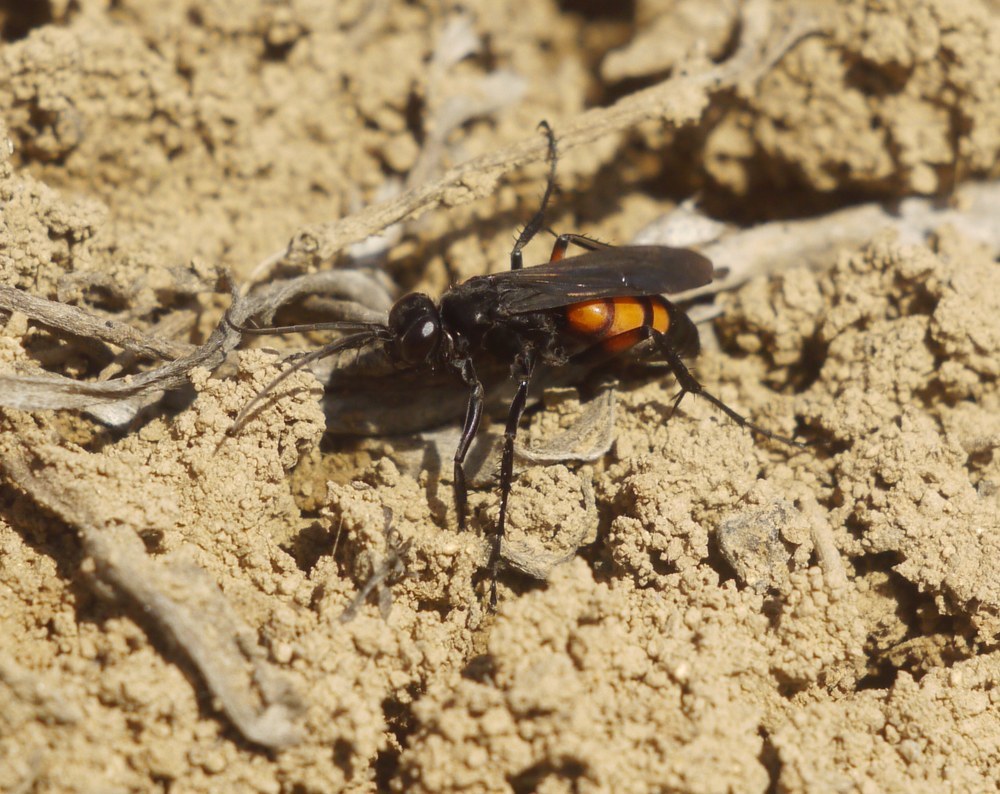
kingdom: Animalia
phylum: Arthropoda
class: Insecta
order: Hymenoptera
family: Pompilidae
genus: Anoplius
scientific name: Anoplius viaticus
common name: Black banded spider wasp
